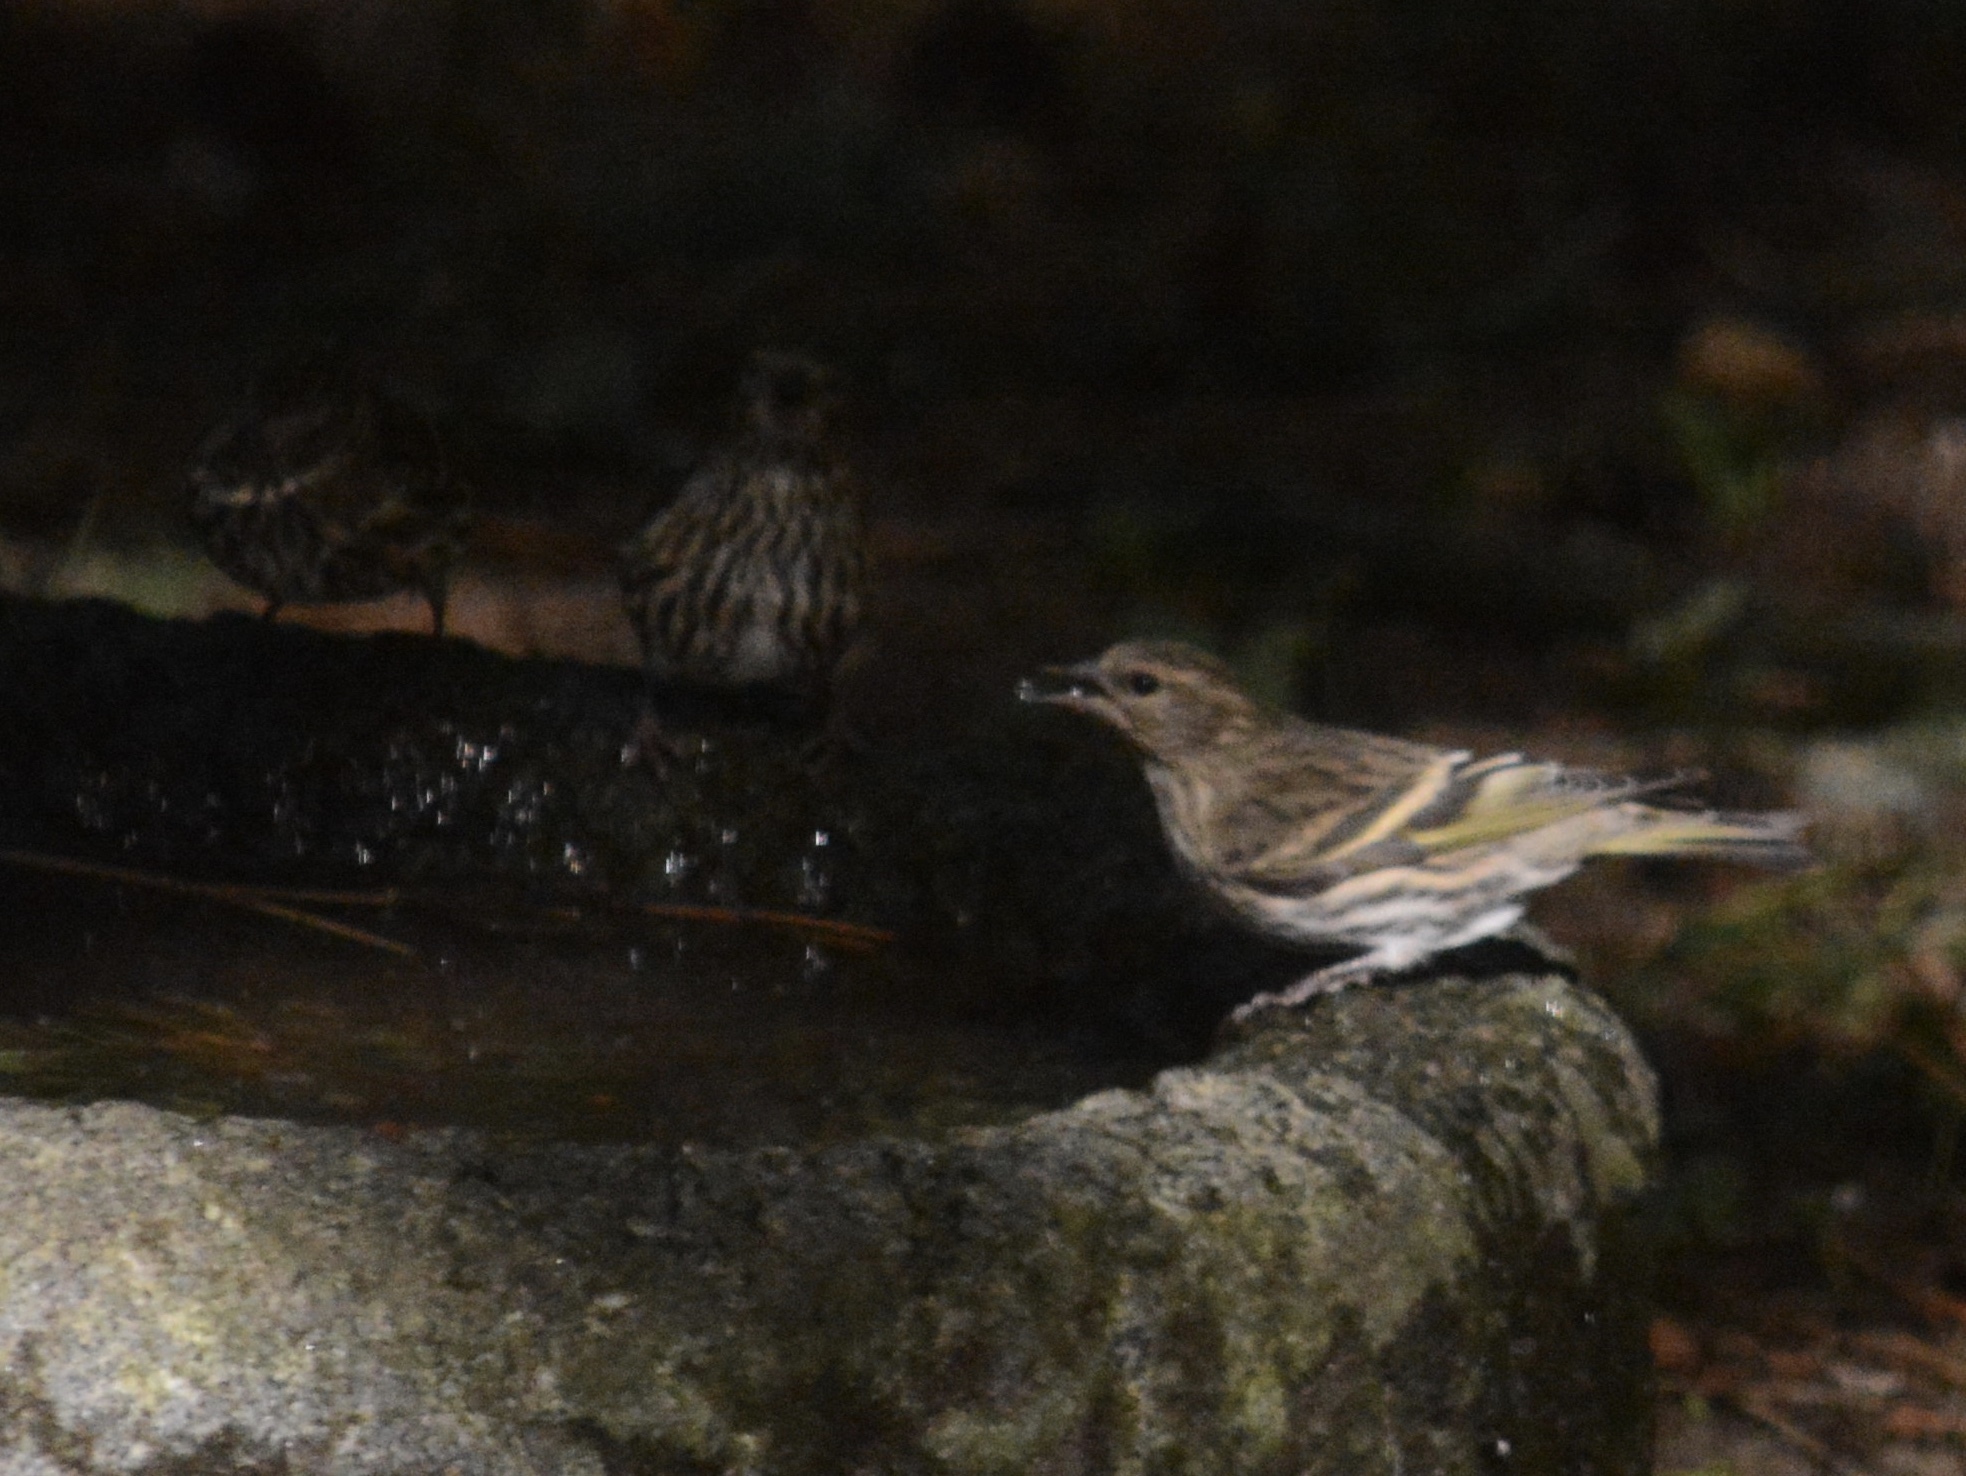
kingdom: Animalia
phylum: Chordata
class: Aves
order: Passeriformes
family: Fringillidae
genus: Spinus
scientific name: Spinus pinus
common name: Pine siskin
